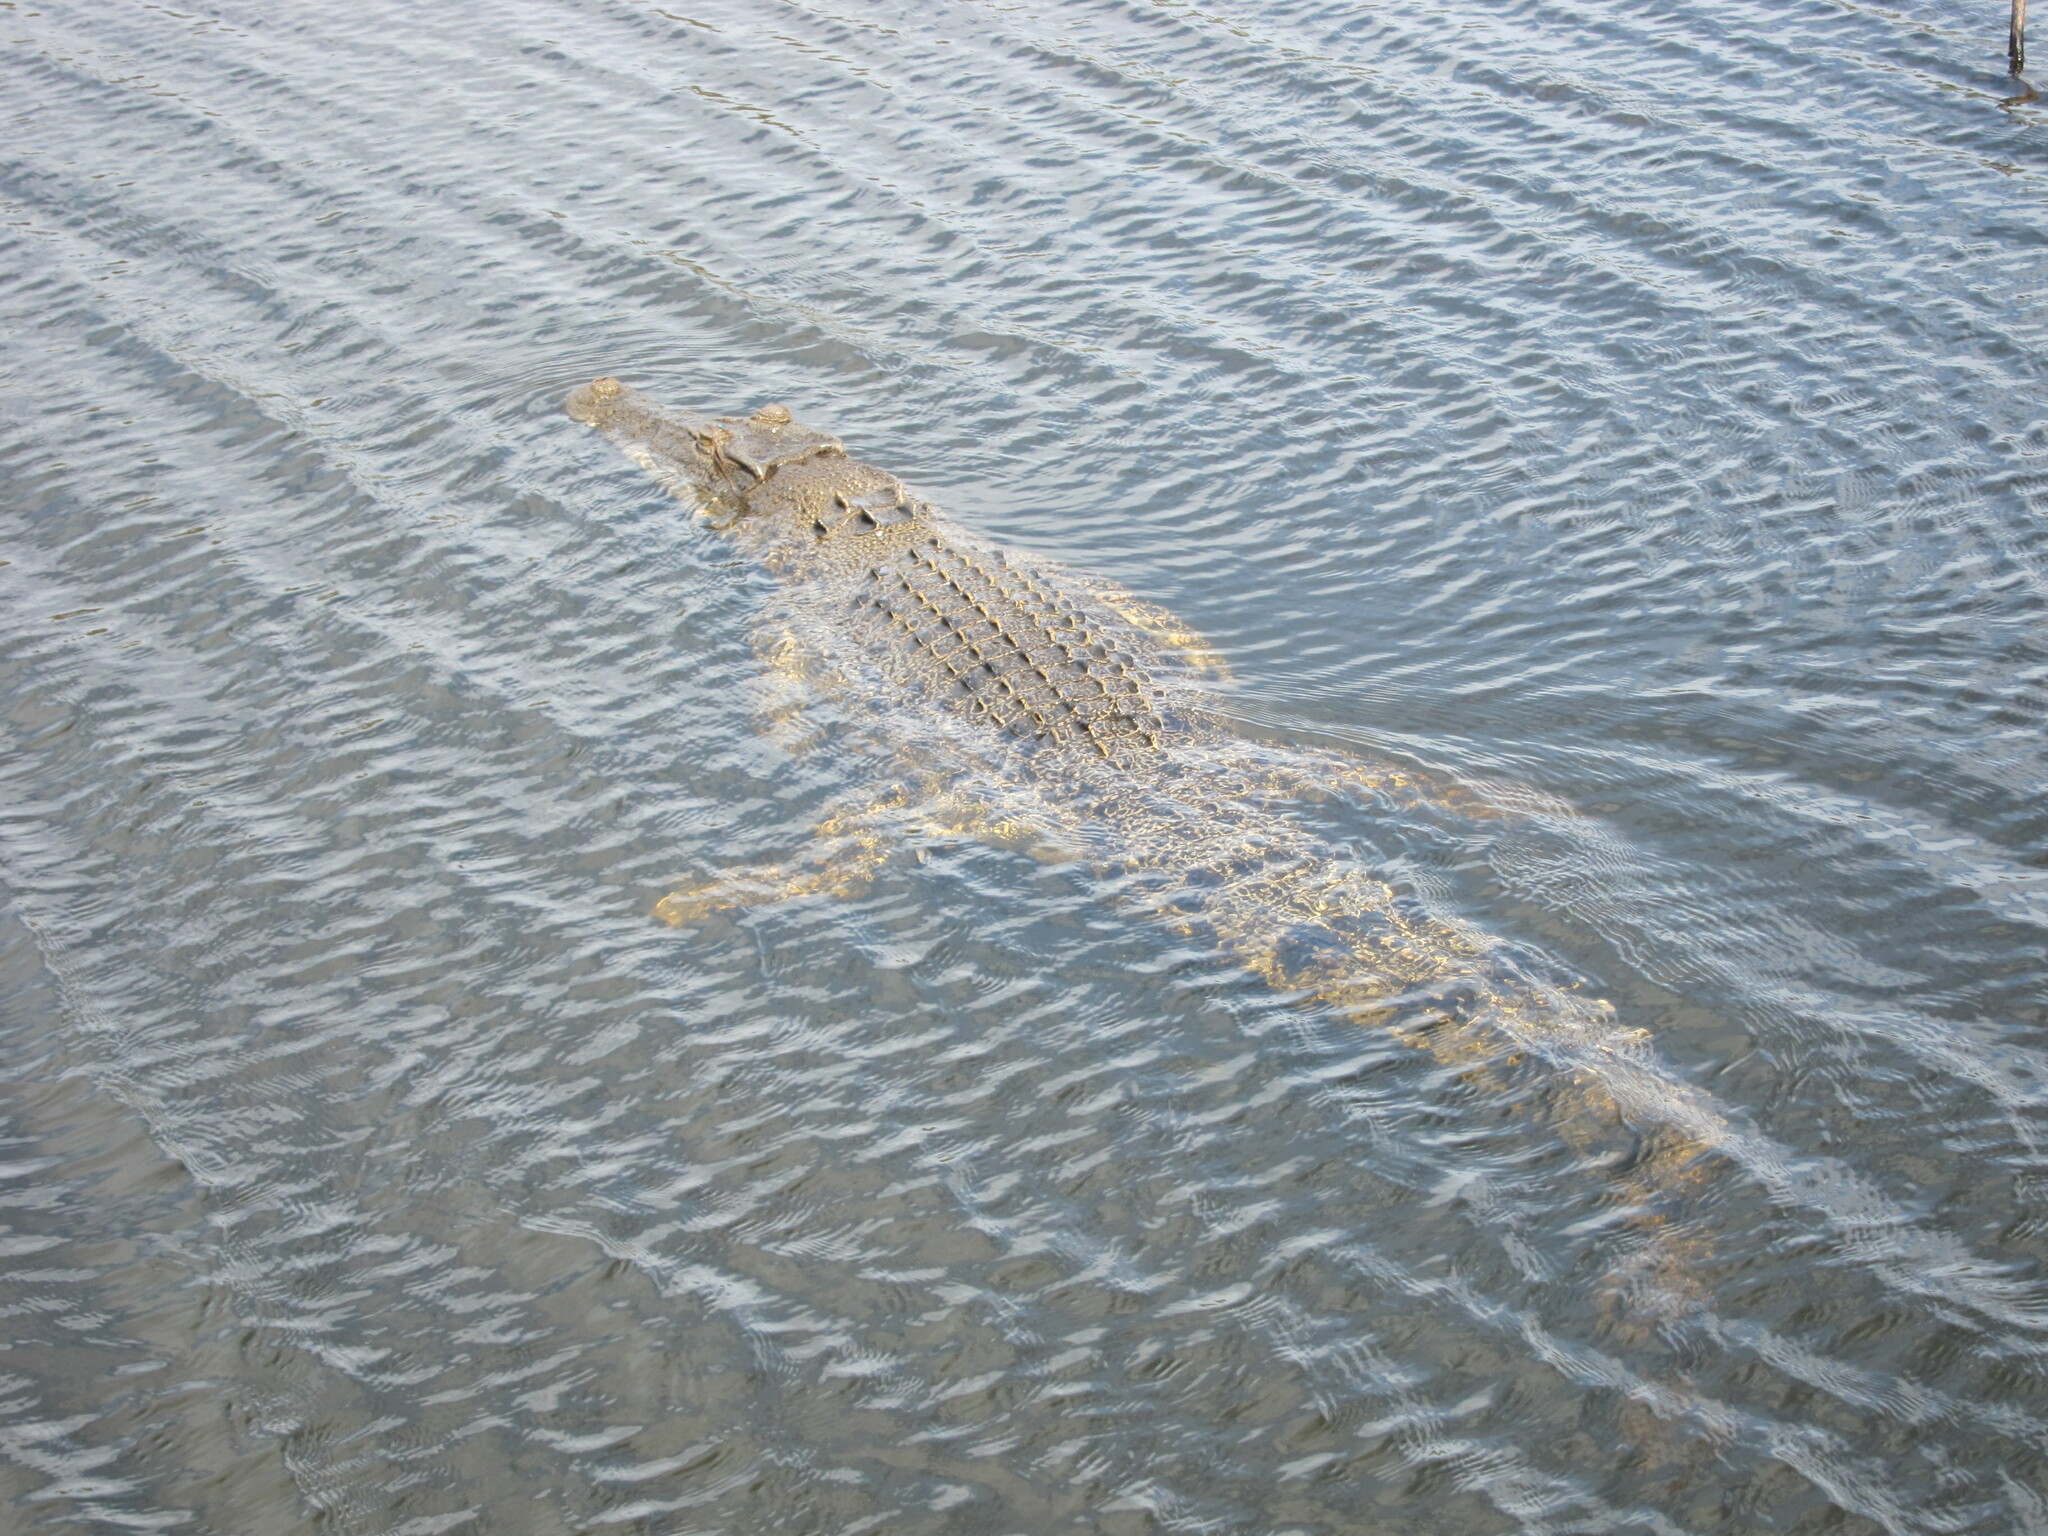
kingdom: Animalia
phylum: Chordata
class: Crocodylia
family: Crocodylidae
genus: Crocodylus
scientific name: Crocodylus porosus
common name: Saltwater crocodile
